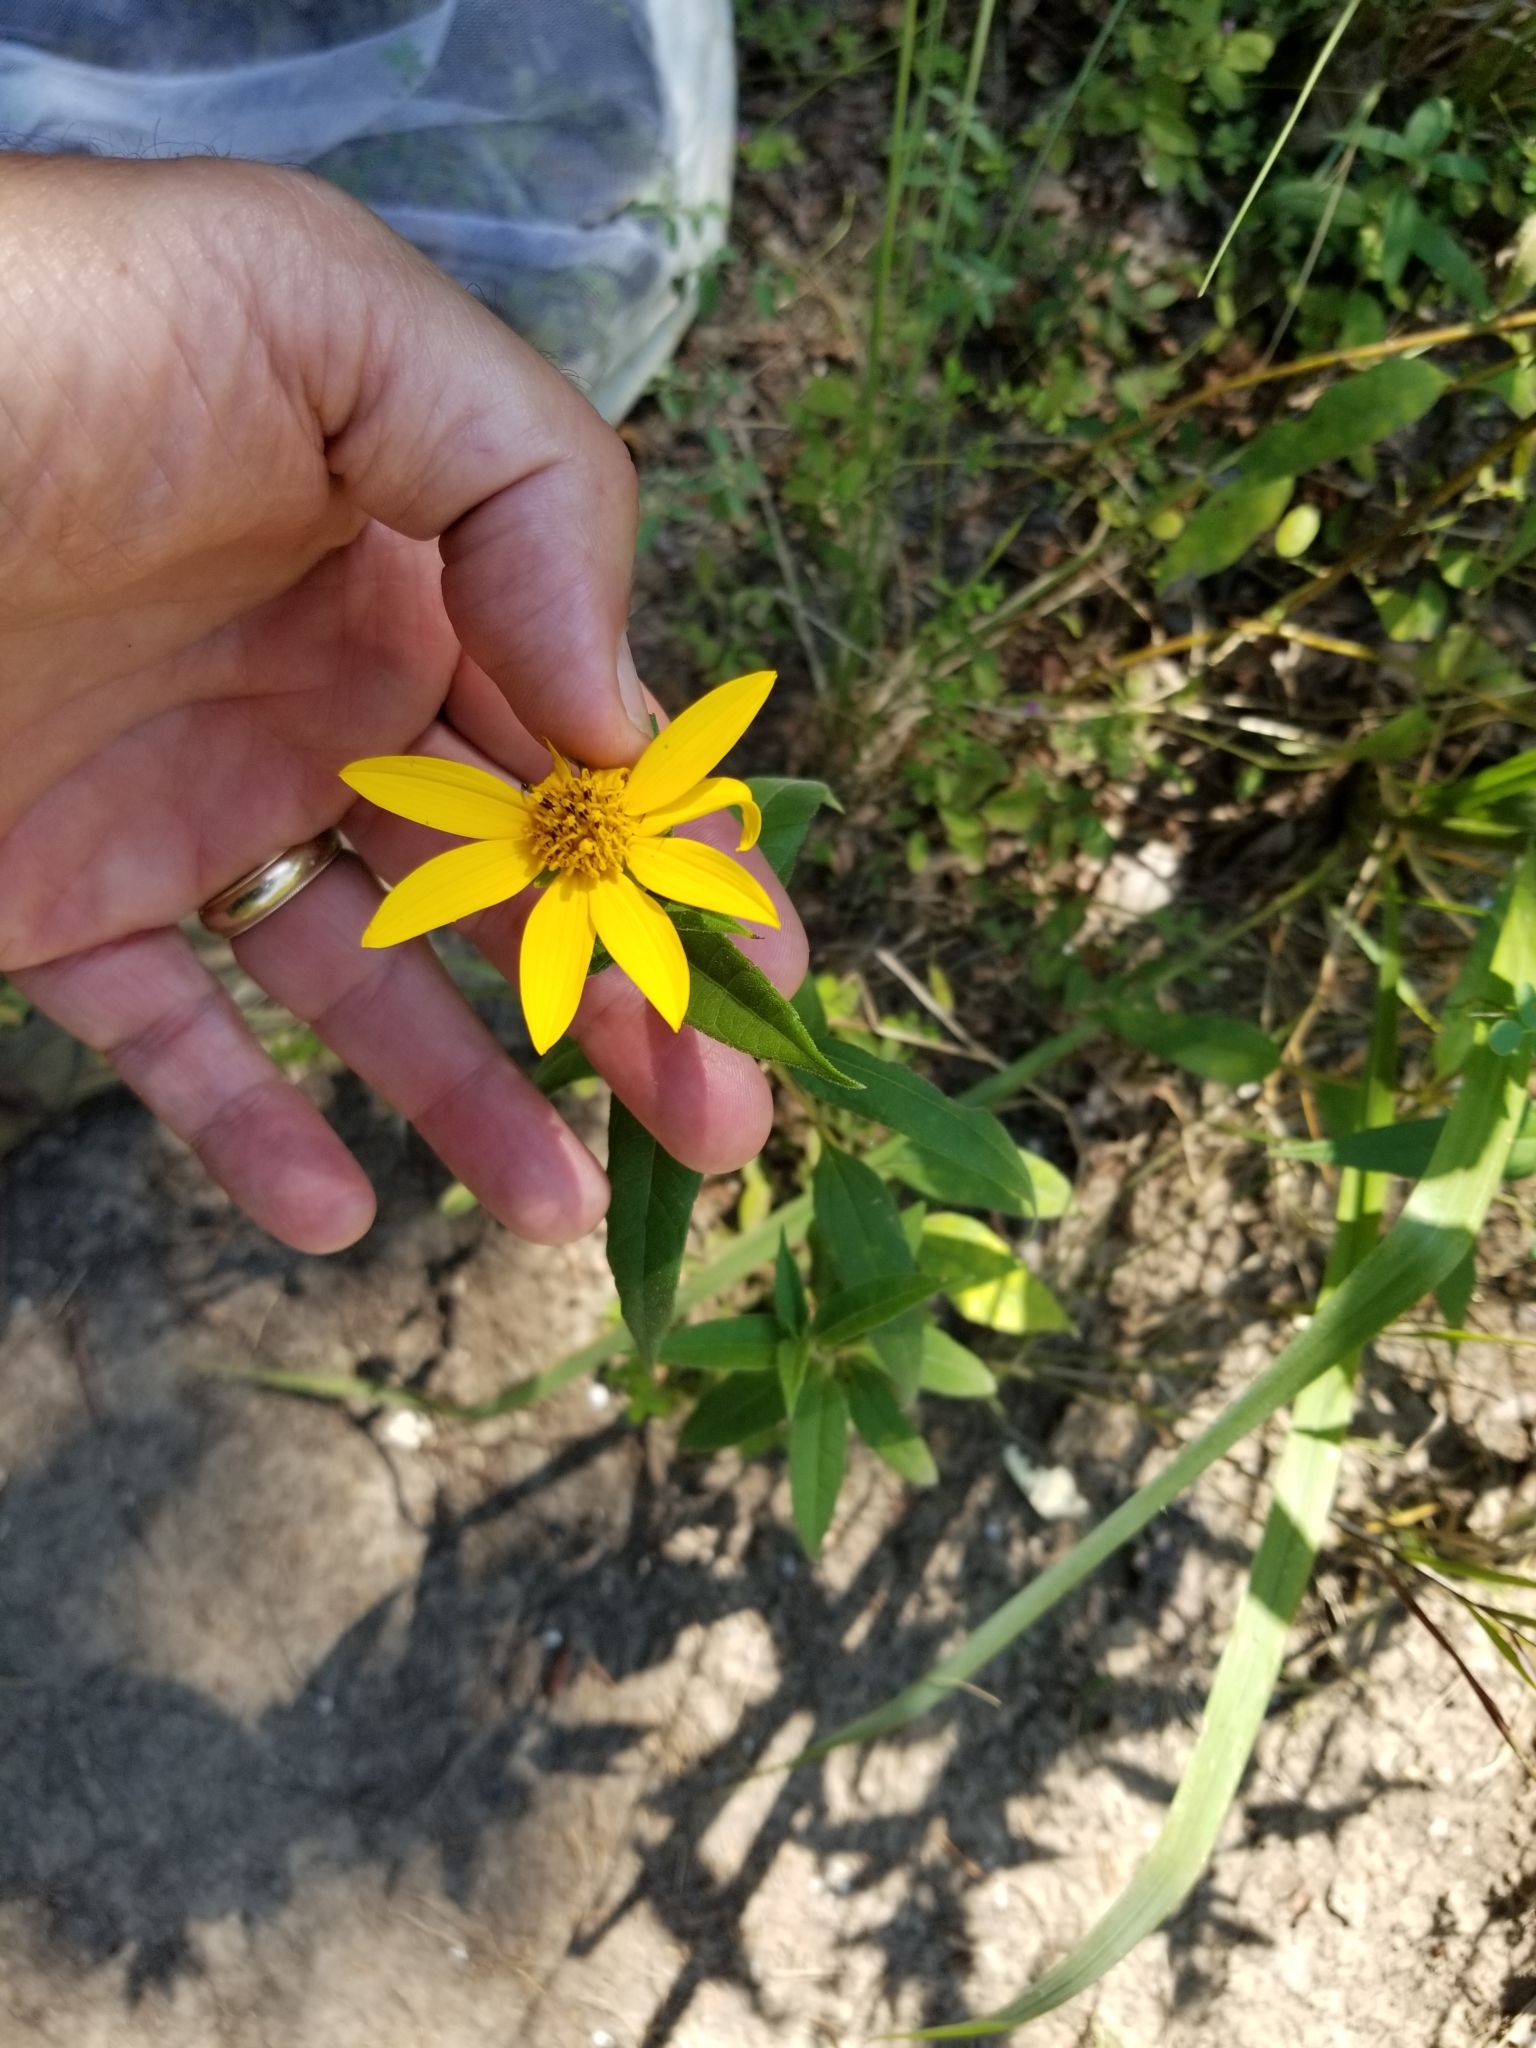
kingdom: Plantae
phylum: Tracheophyta
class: Magnoliopsida
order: Asterales
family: Asteraceae
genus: Helianthus
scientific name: Helianthus hirsutus
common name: Hairy sunflower
